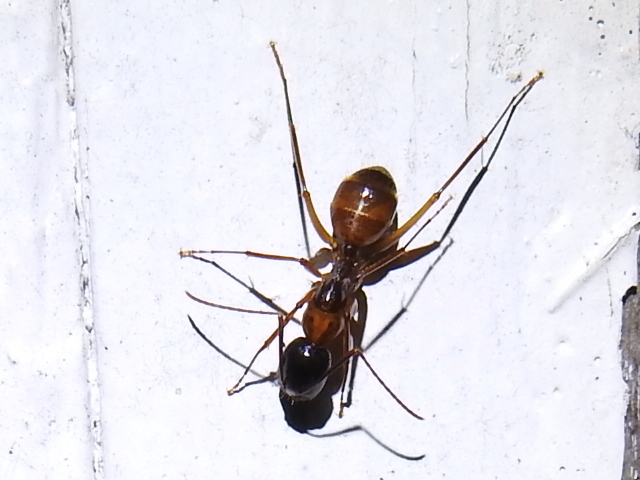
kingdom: Animalia
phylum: Arthropoda
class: Insecta
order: Hymenoptera
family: Formicidae
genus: Camponotus
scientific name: Camponotus pennsylvanicus
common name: Black carpenter ant
